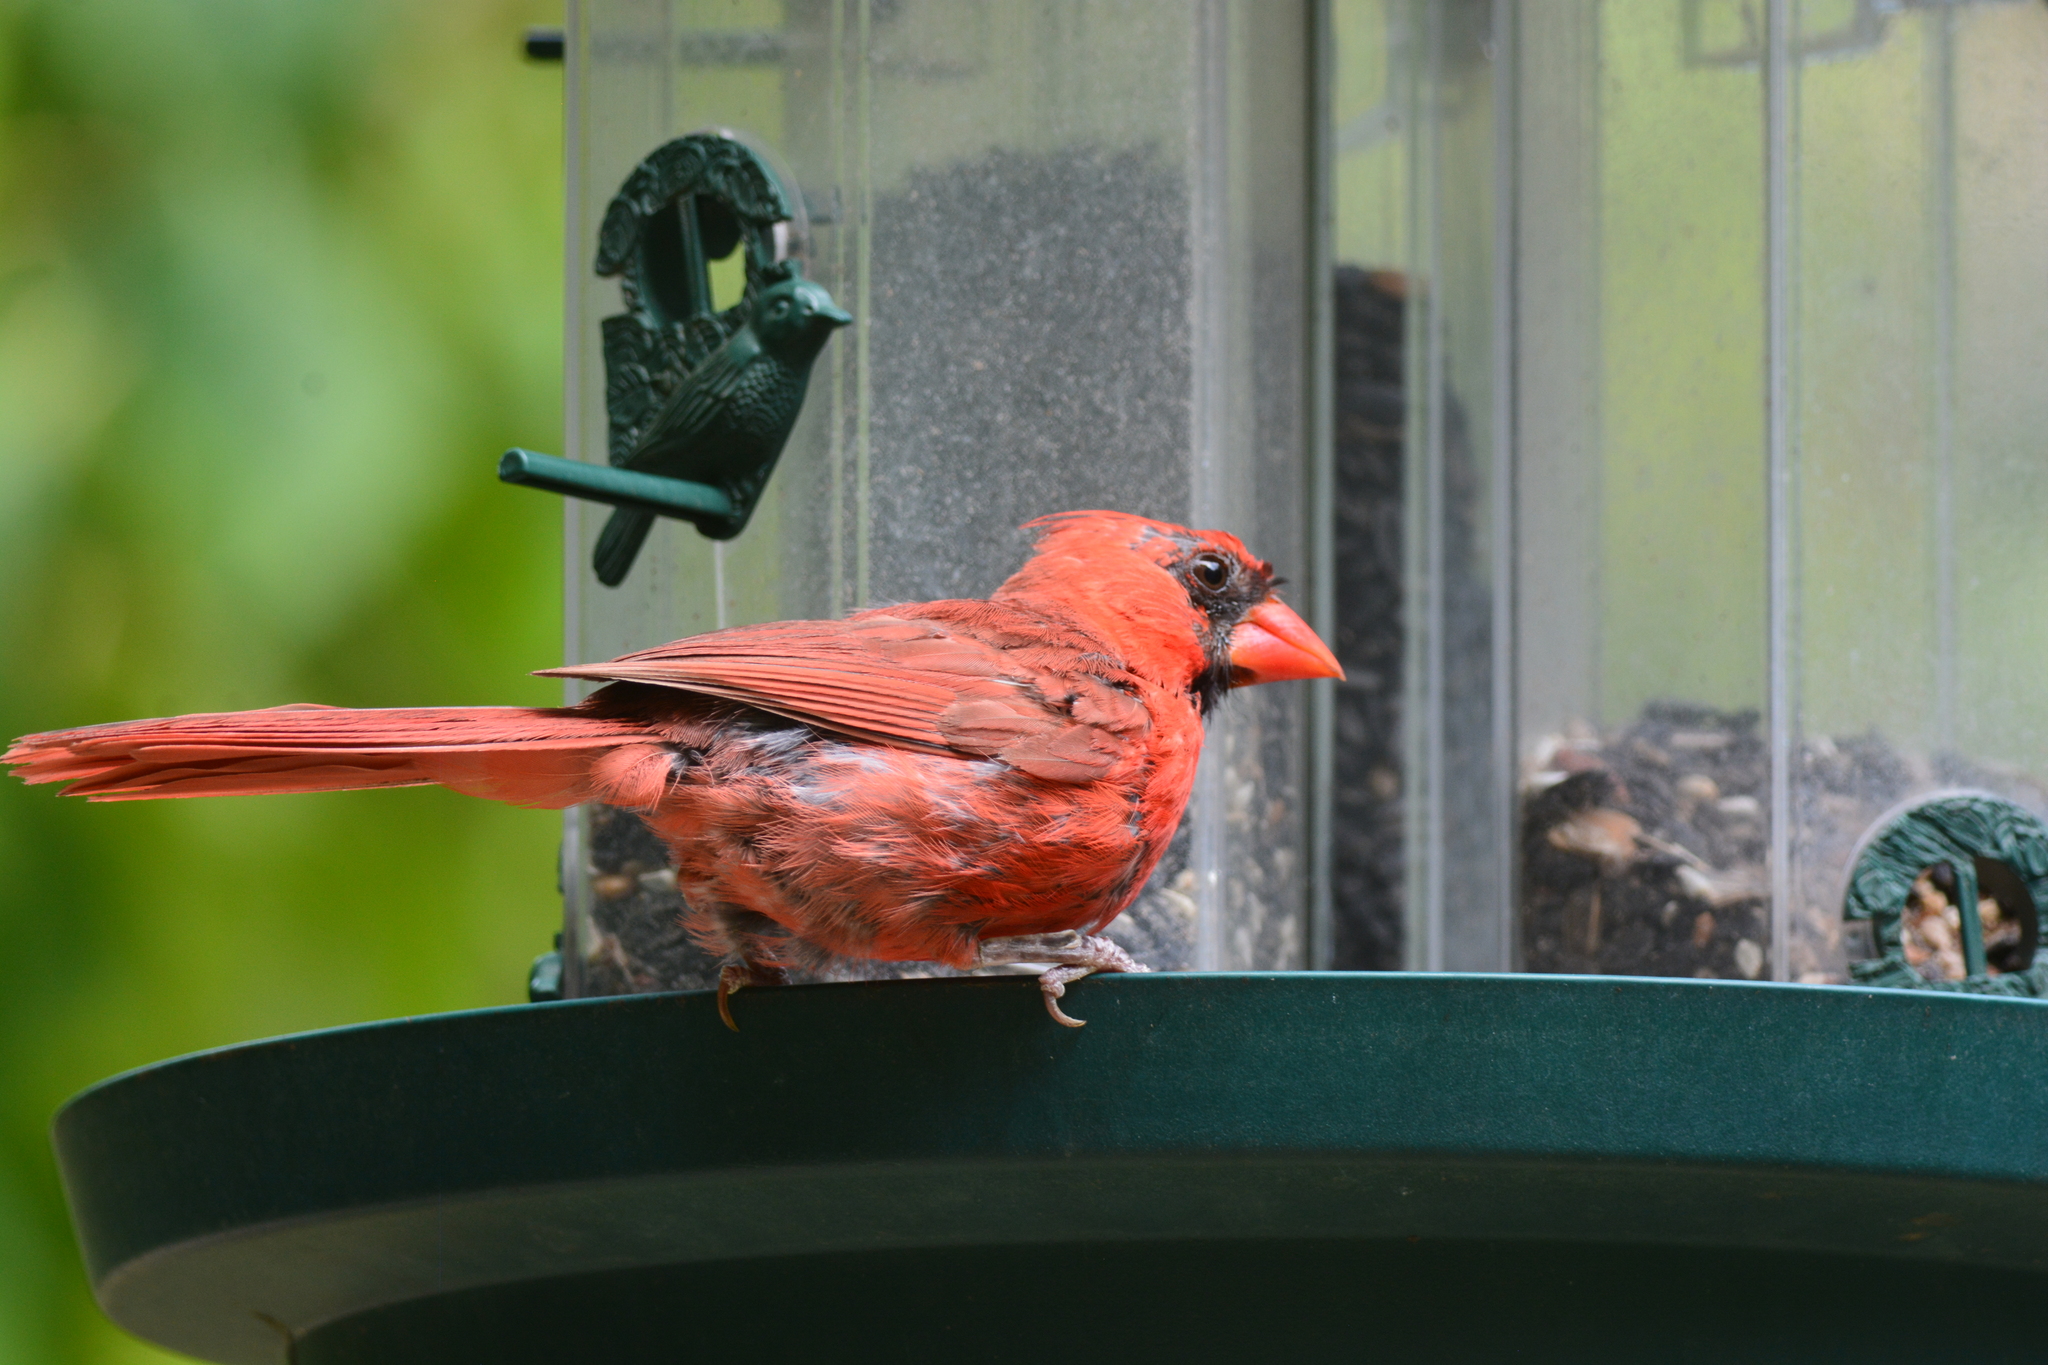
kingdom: Animalia
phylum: Chordata
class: Aves
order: Passeriformes
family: Cardinalidae
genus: Cardinalis
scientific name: Cardinalis cardinalis
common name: Northern cardinal
